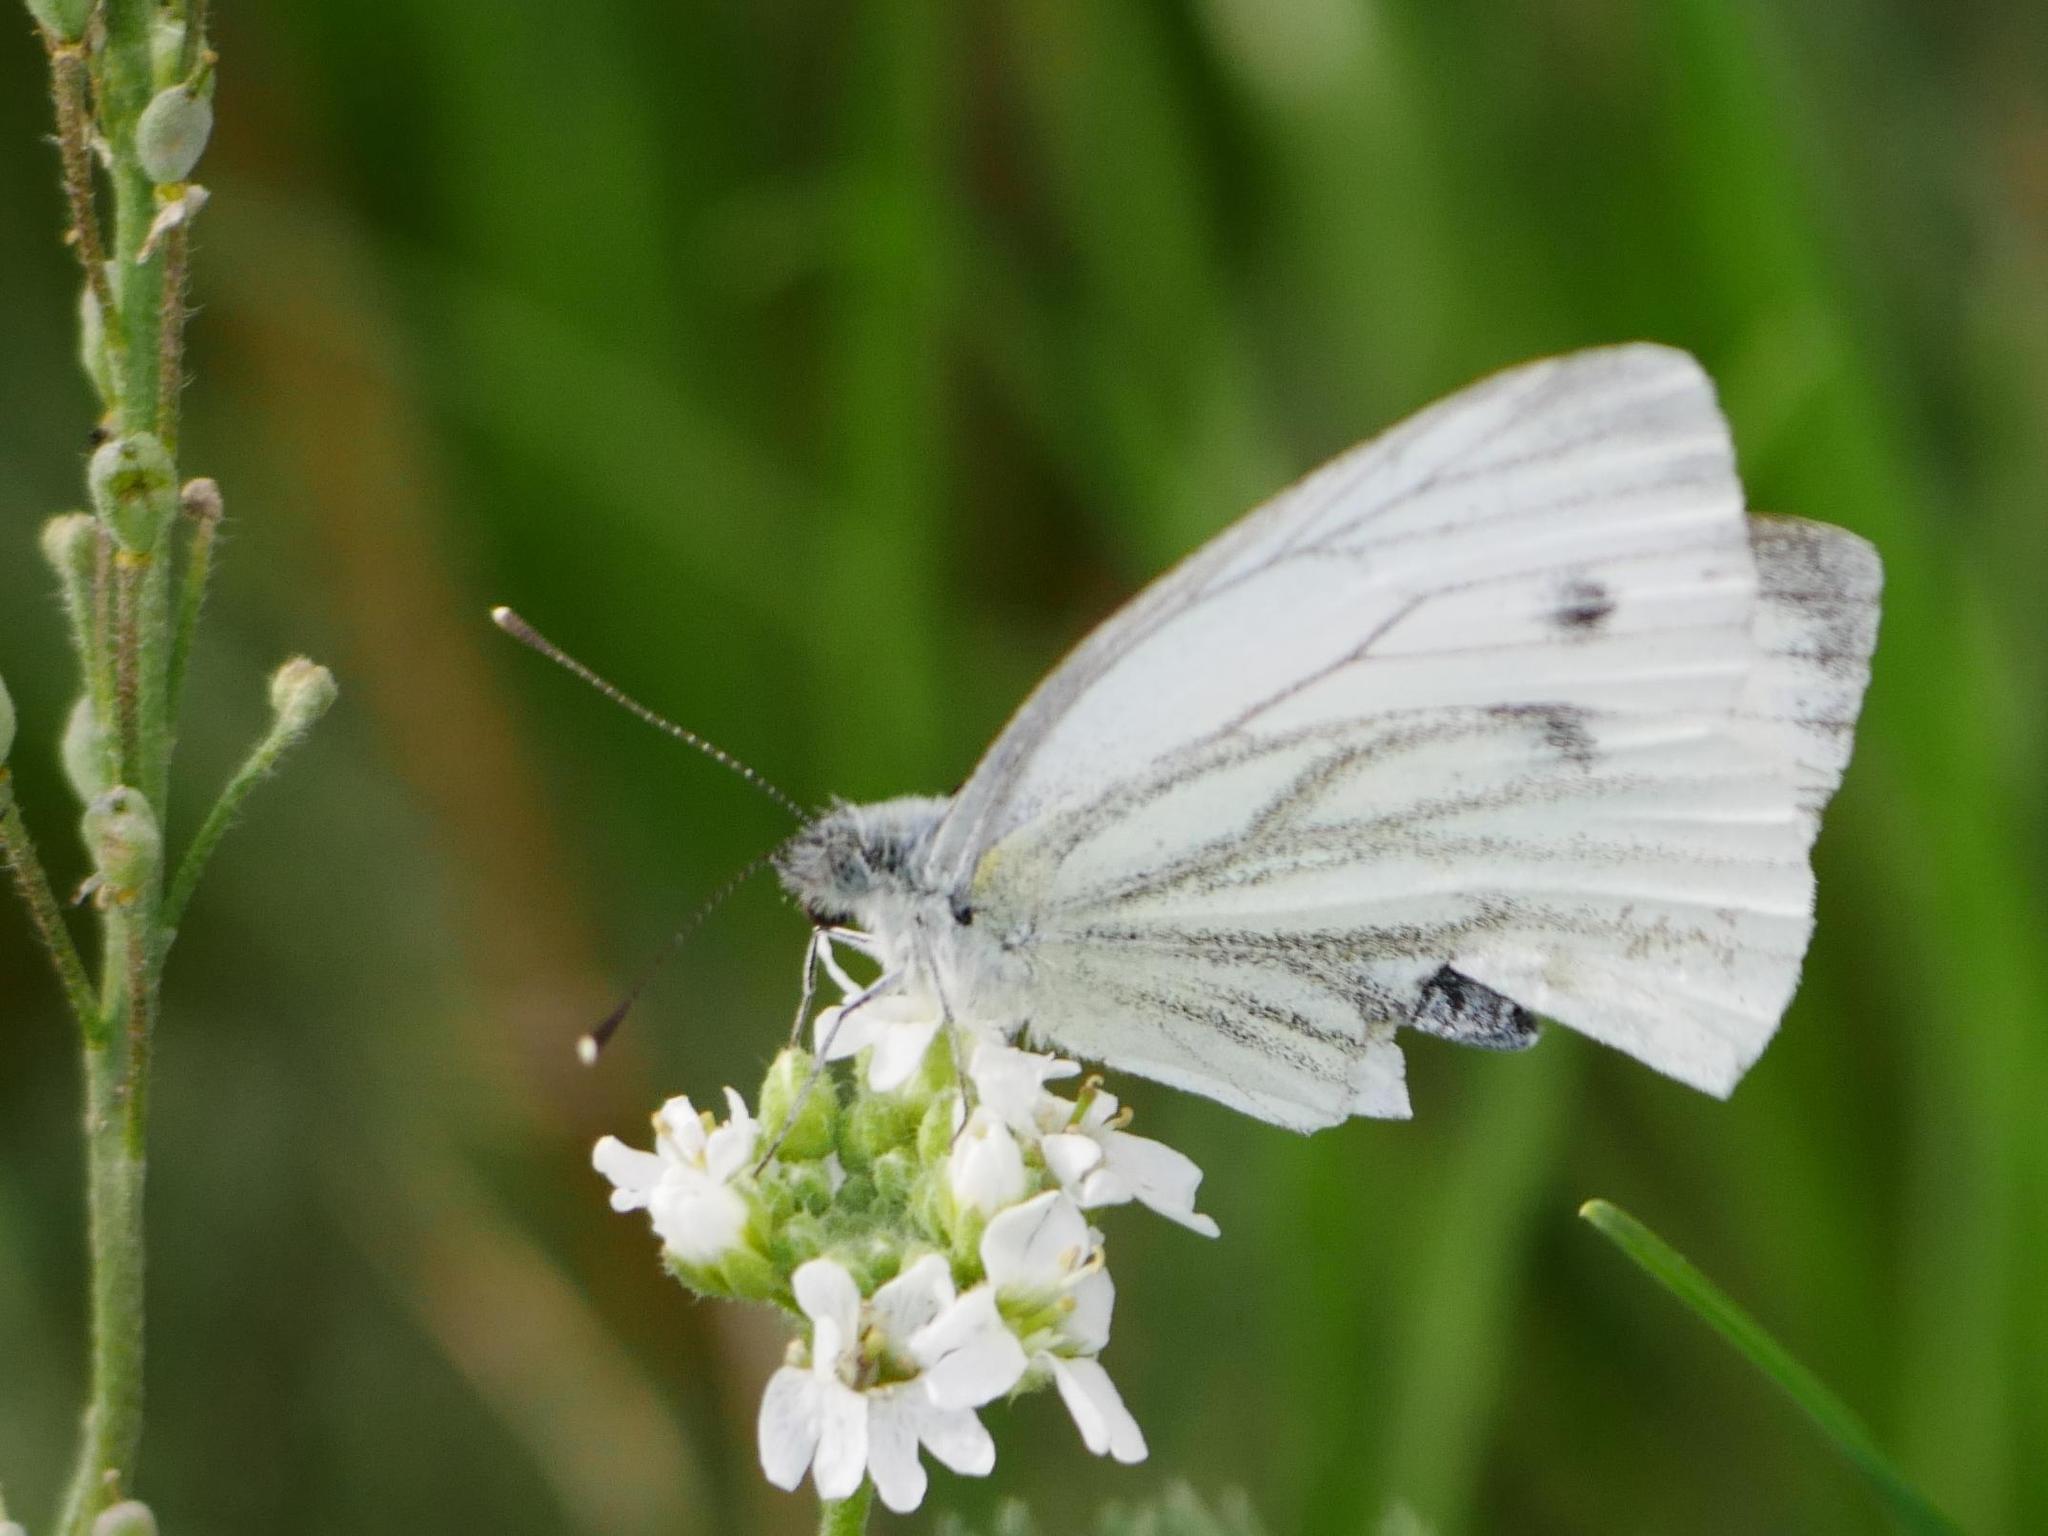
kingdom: Animalia
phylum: Arthropoda
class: Insecta
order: Lepidoptera
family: Pieridae
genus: Pieris
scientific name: Pieris napi
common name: Green-veined white
